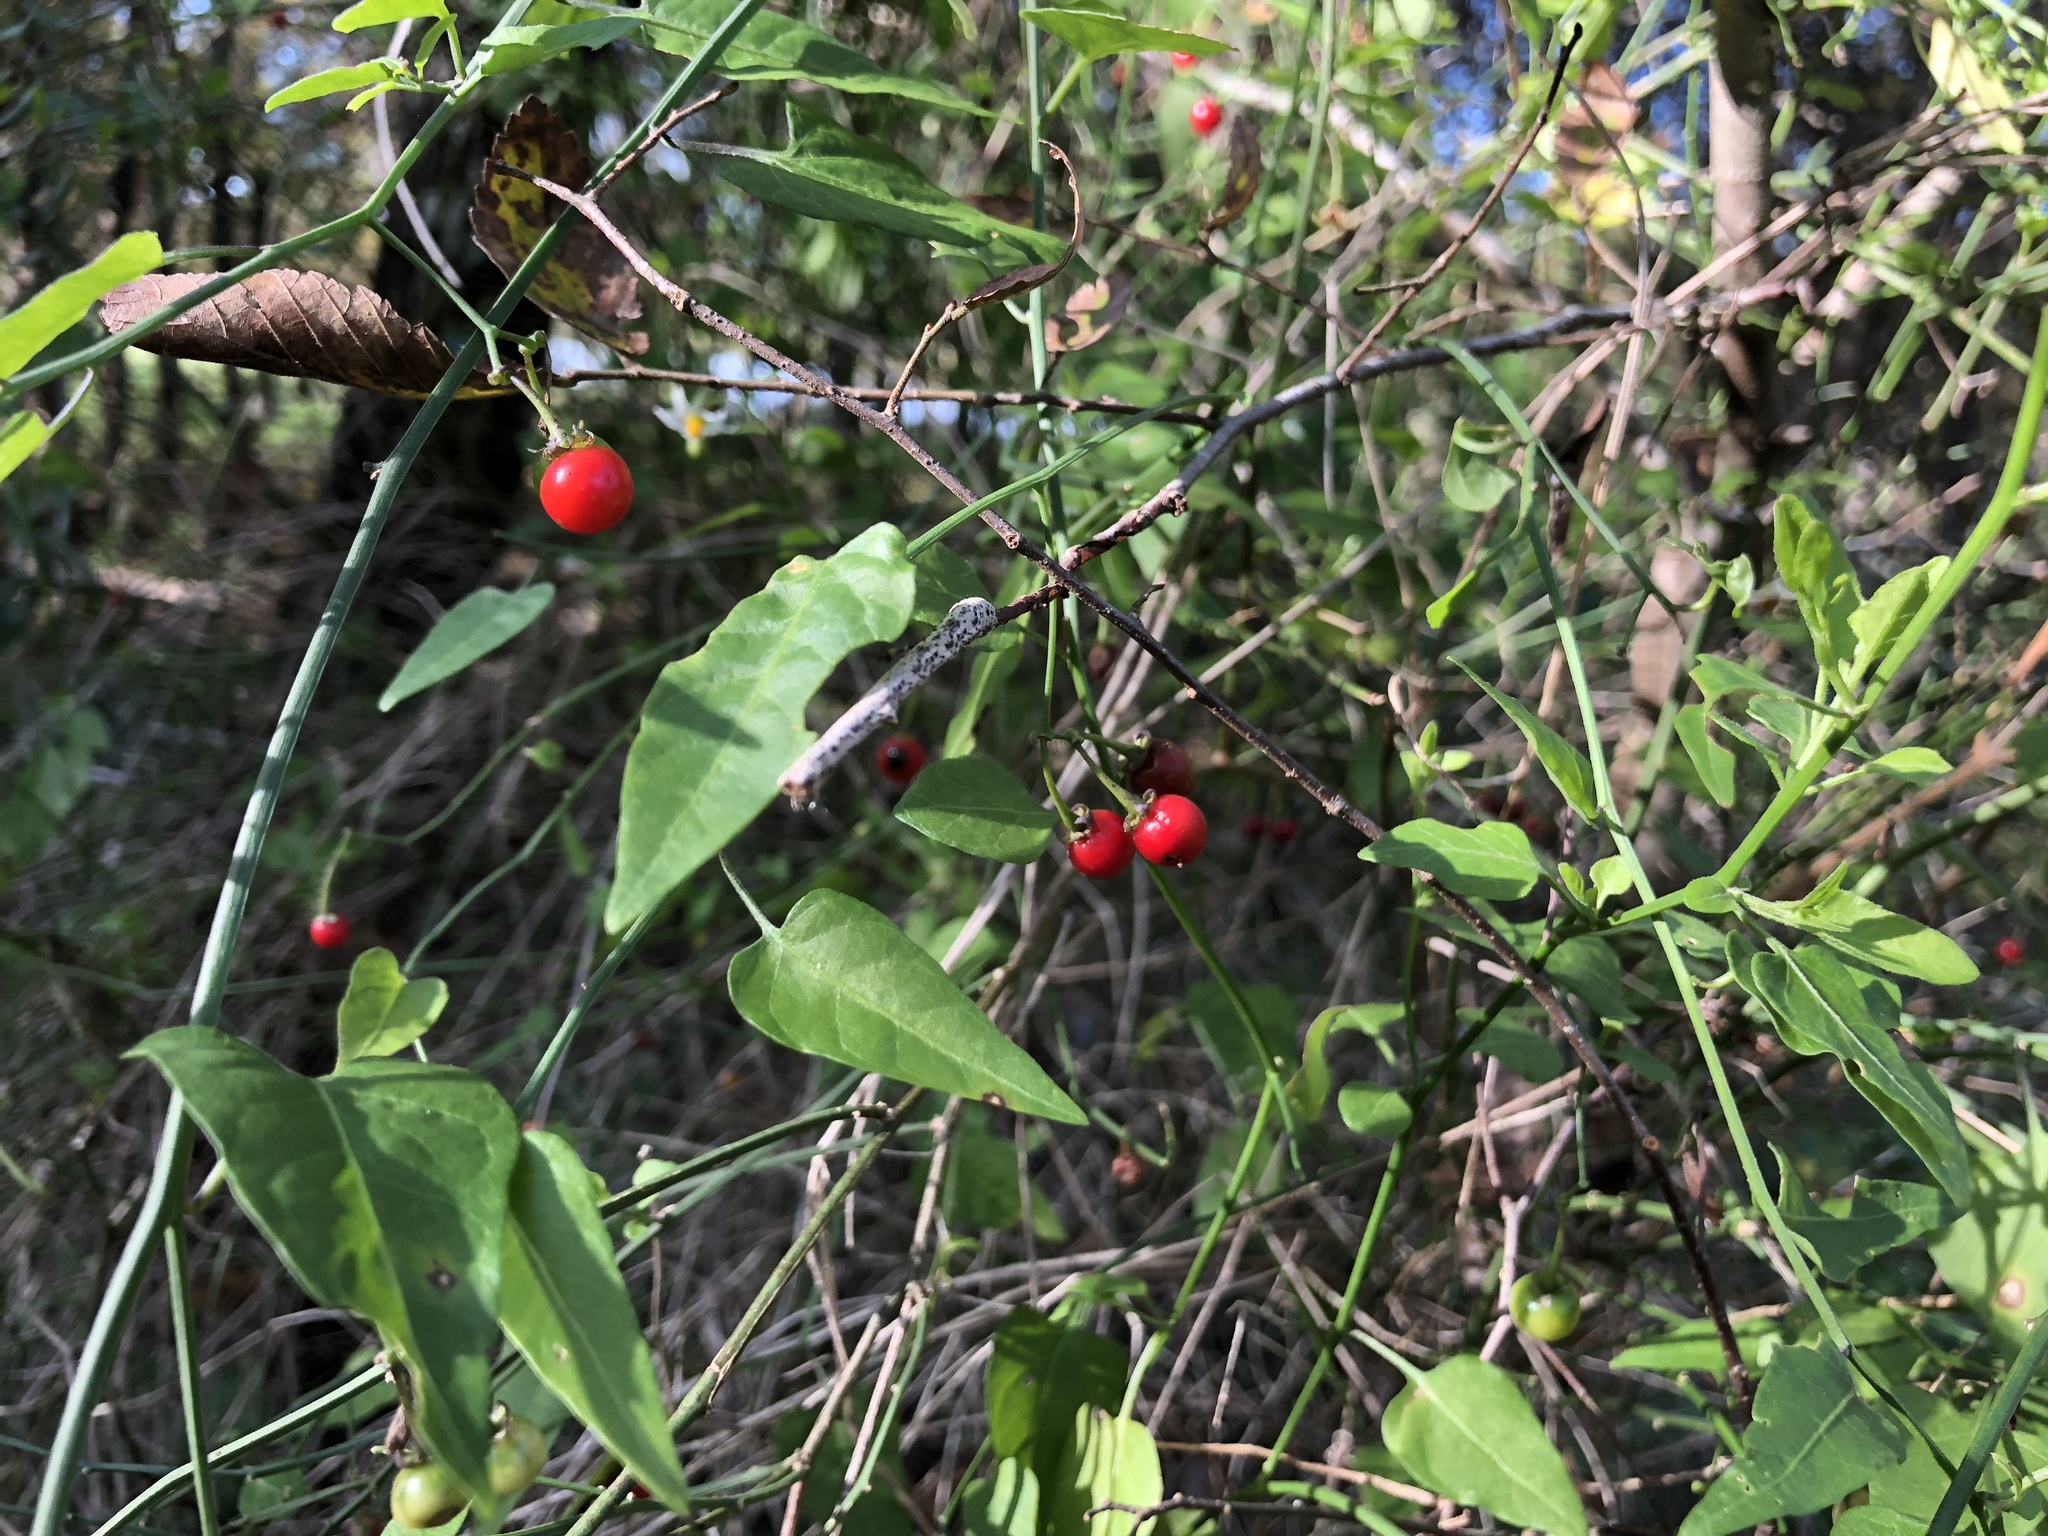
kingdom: Plantae
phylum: Tracheophyta
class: Magnoliopsida
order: Solanales
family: Solanaceae
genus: Solanum
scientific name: Solanum triquetrum
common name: Texas nightshade
